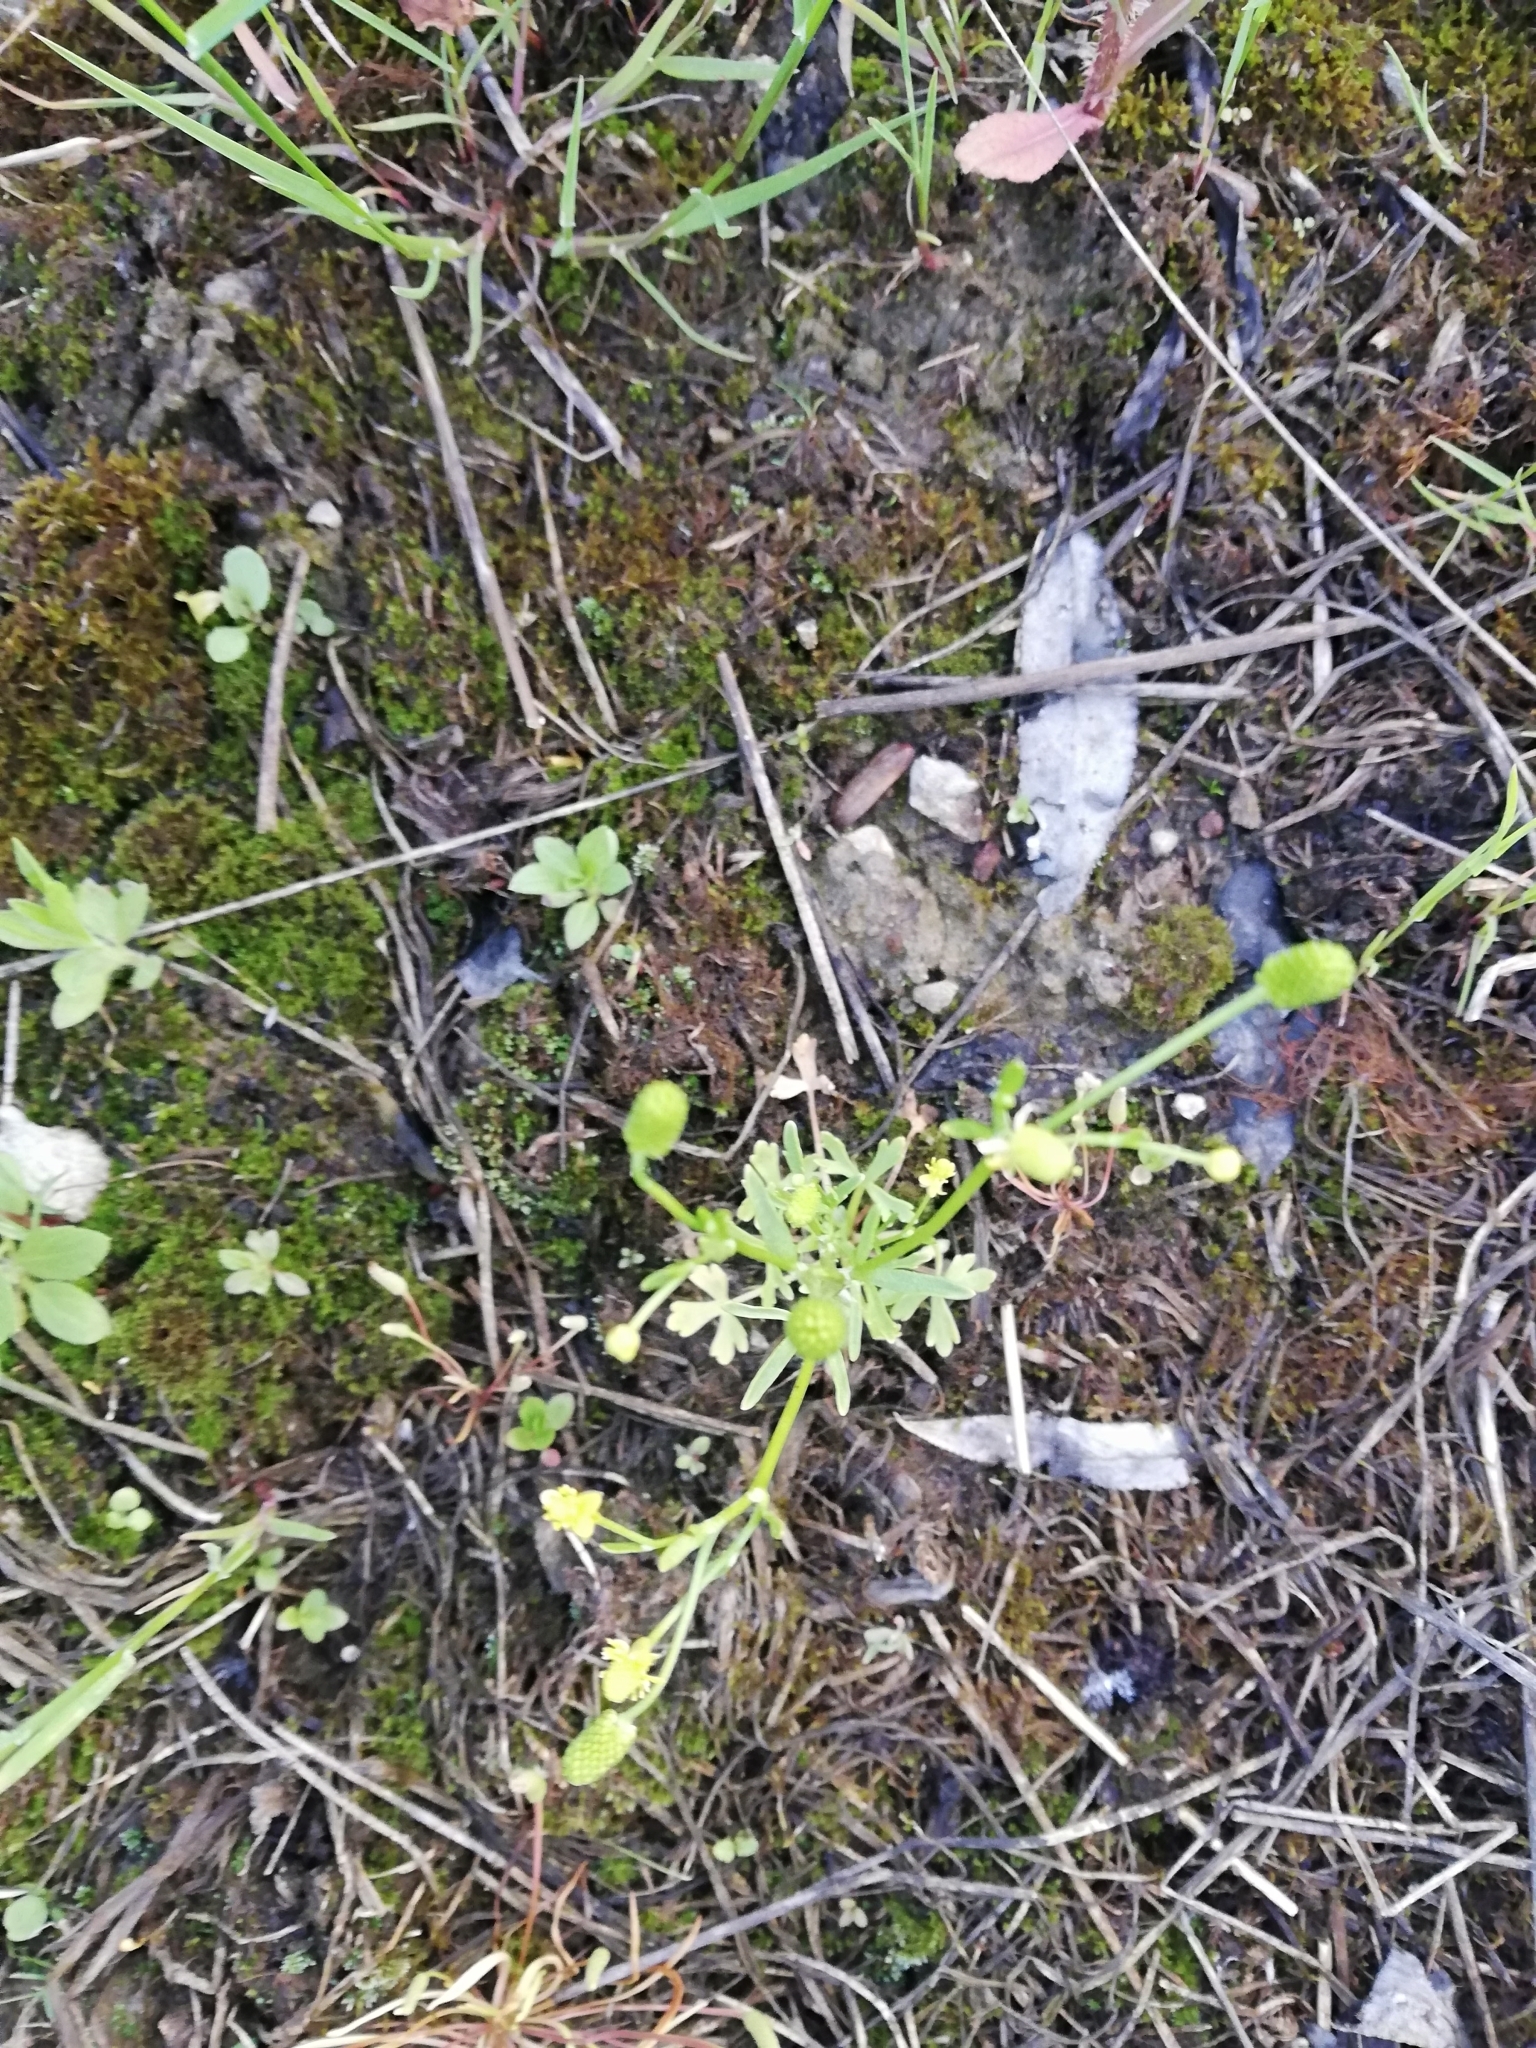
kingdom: Plantae
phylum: Tracheophyta
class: Magnoliopsida
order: Ranunculales
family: Ranunculaceae
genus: Ranunculus
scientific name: Ranunculus sceleratus
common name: Celery-leaved buttercup
